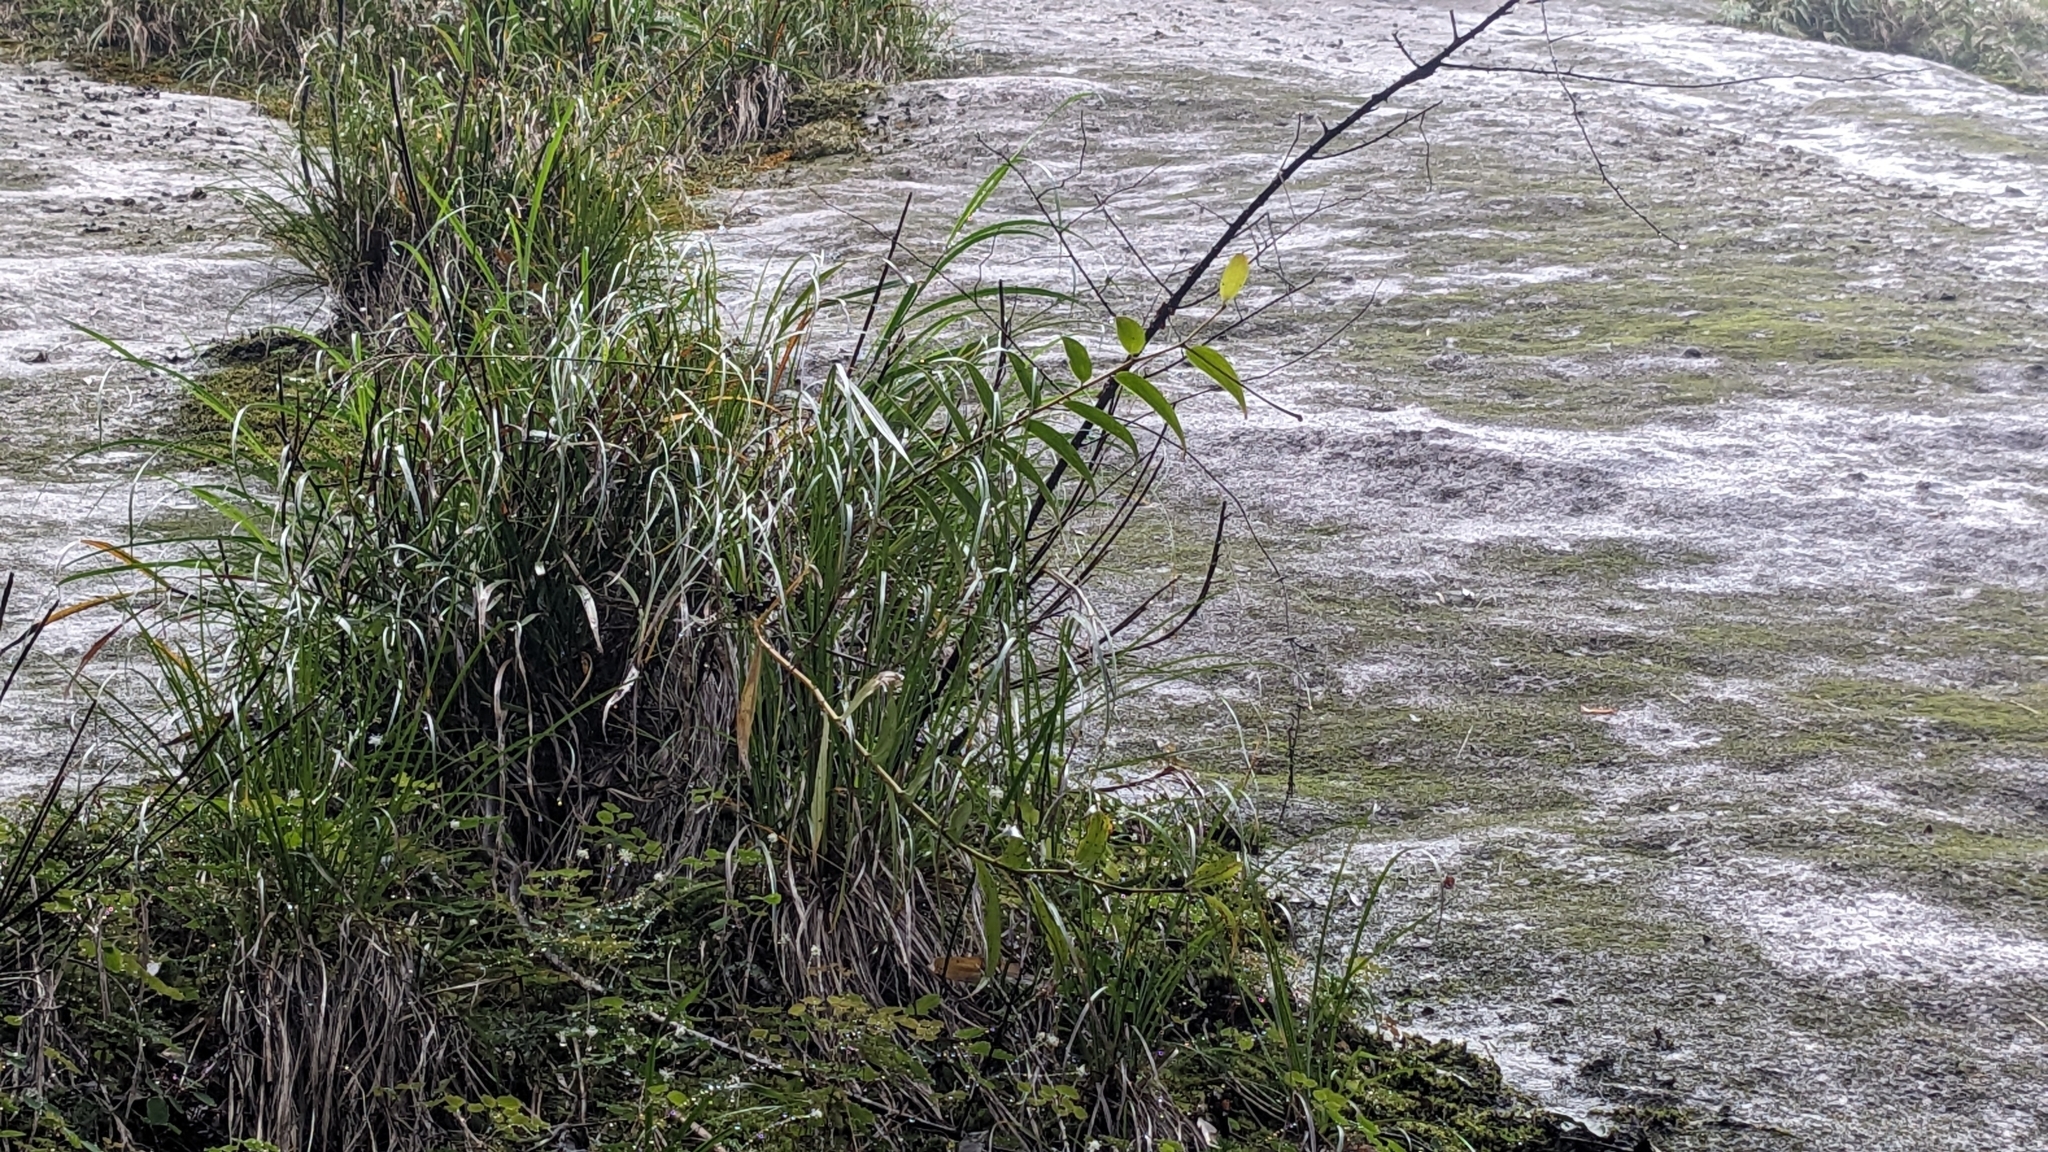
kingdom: Plantae
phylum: Tracheophyta
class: Liliopsida
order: Liliales
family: Liliaceae
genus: Lilium
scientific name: Lilium speciosum
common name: Japanese lily
